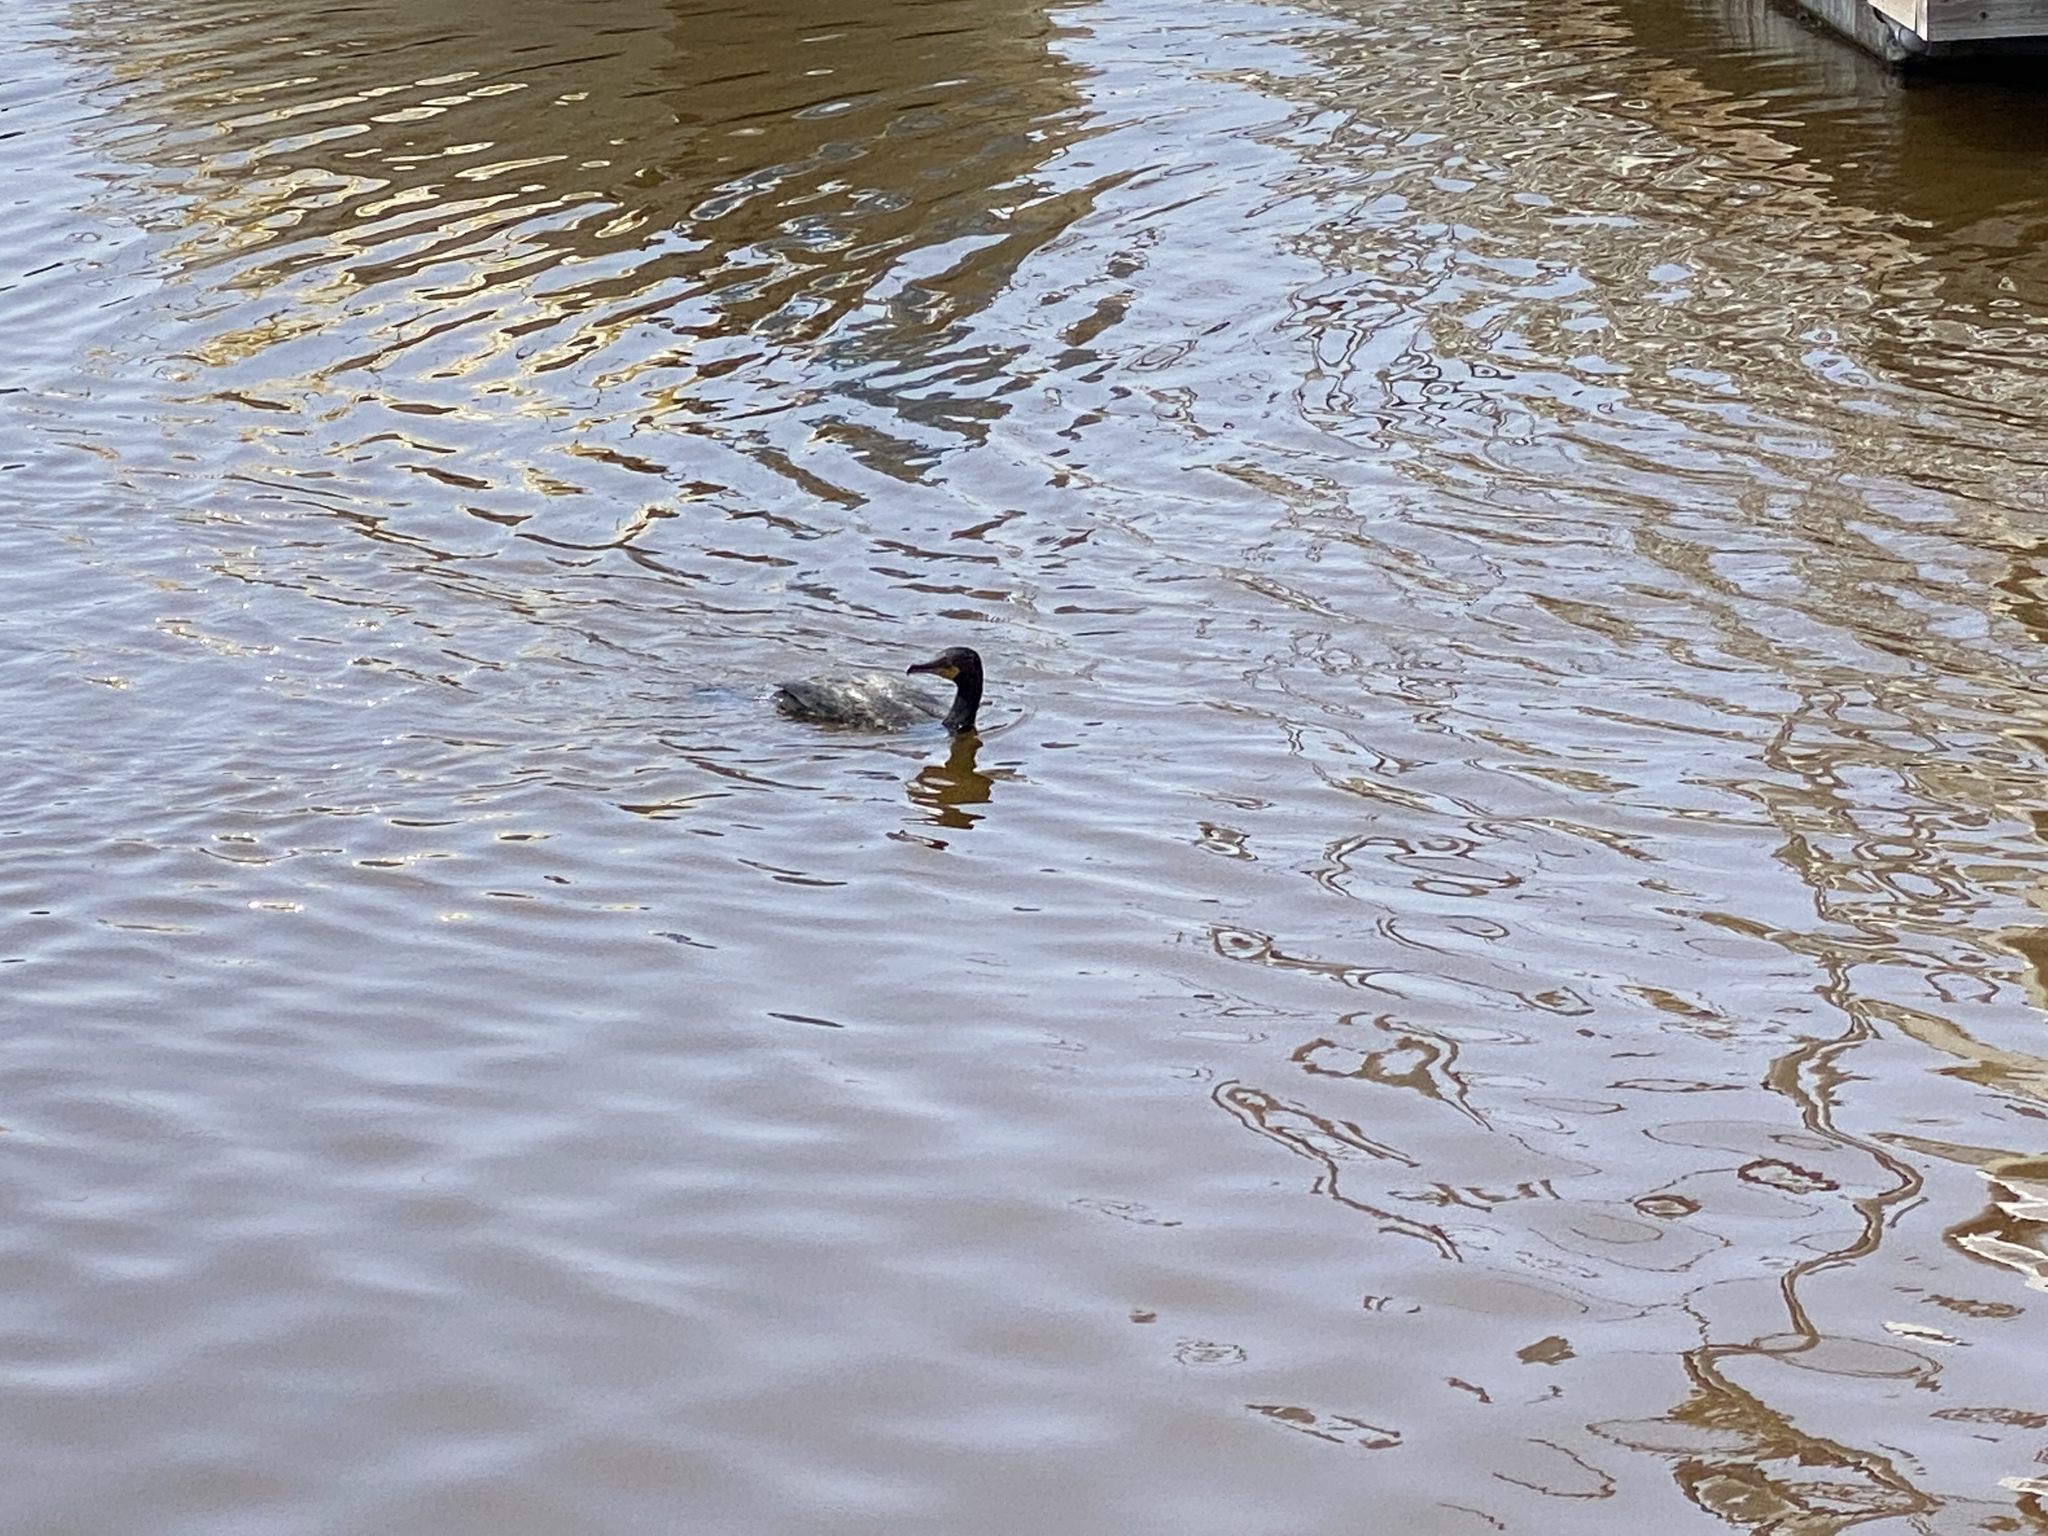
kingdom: Animalia
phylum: Chordata
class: Aves
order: Suliformes
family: Phalacrocoracidae
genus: Phalacrocorax
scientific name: Phalacrocorax auritus
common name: Double-crested cormorant
